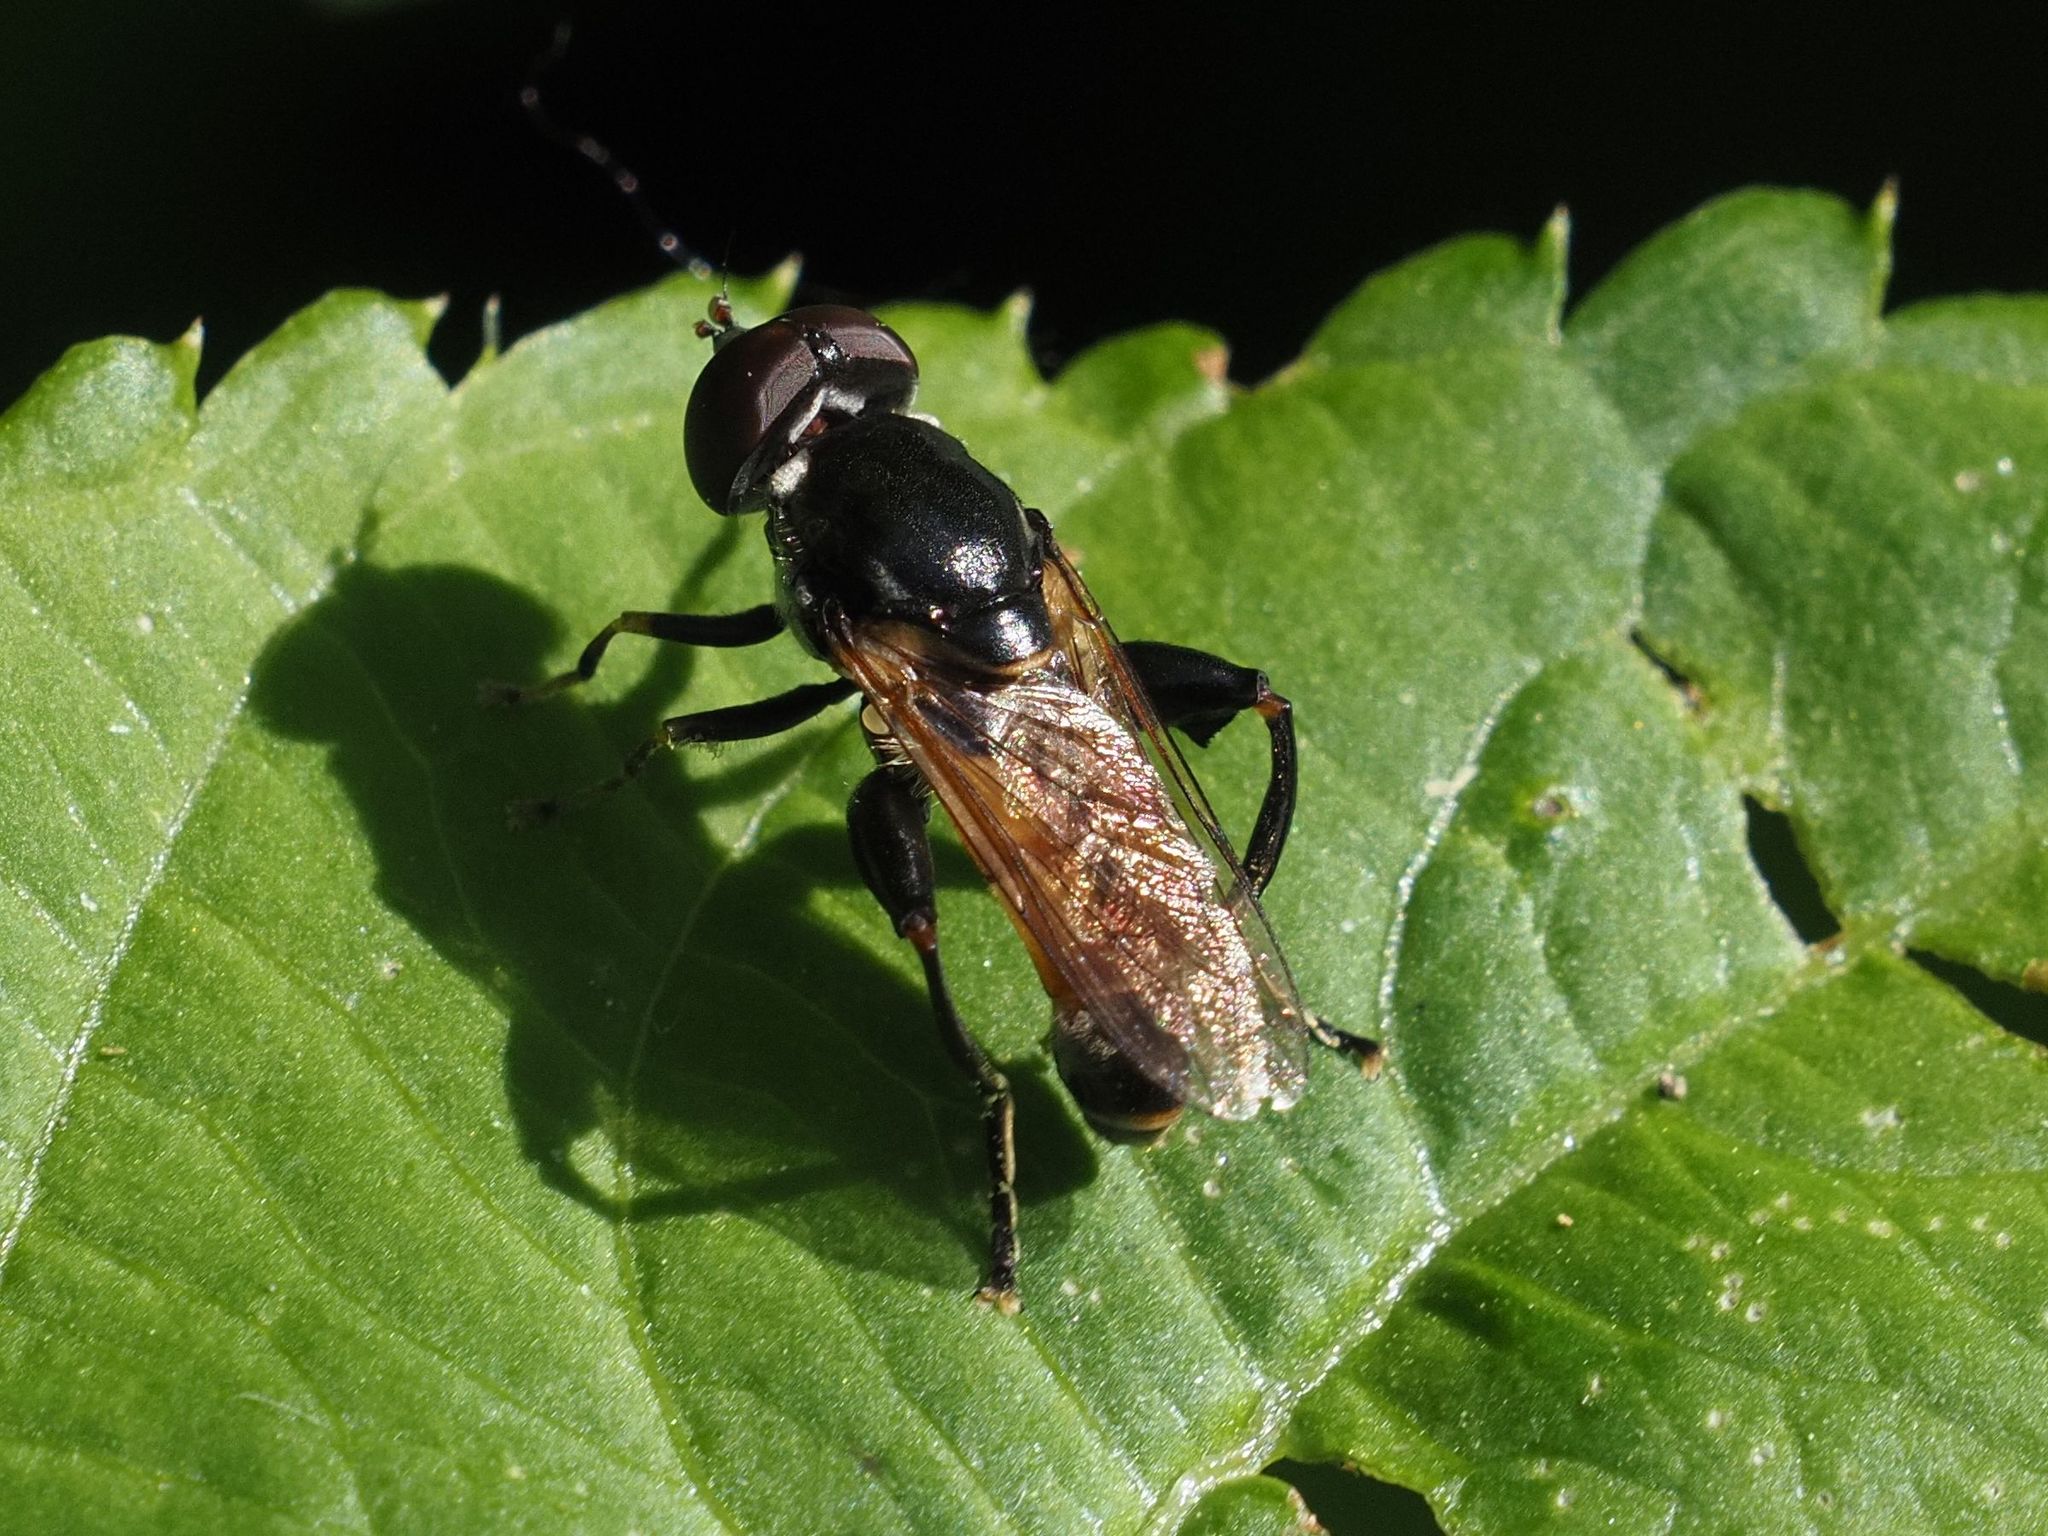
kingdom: Animalia
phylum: Arthropoda
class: Insecta
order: Diptera
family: Syrphidae
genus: Tropidia
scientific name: Tropidia scita
